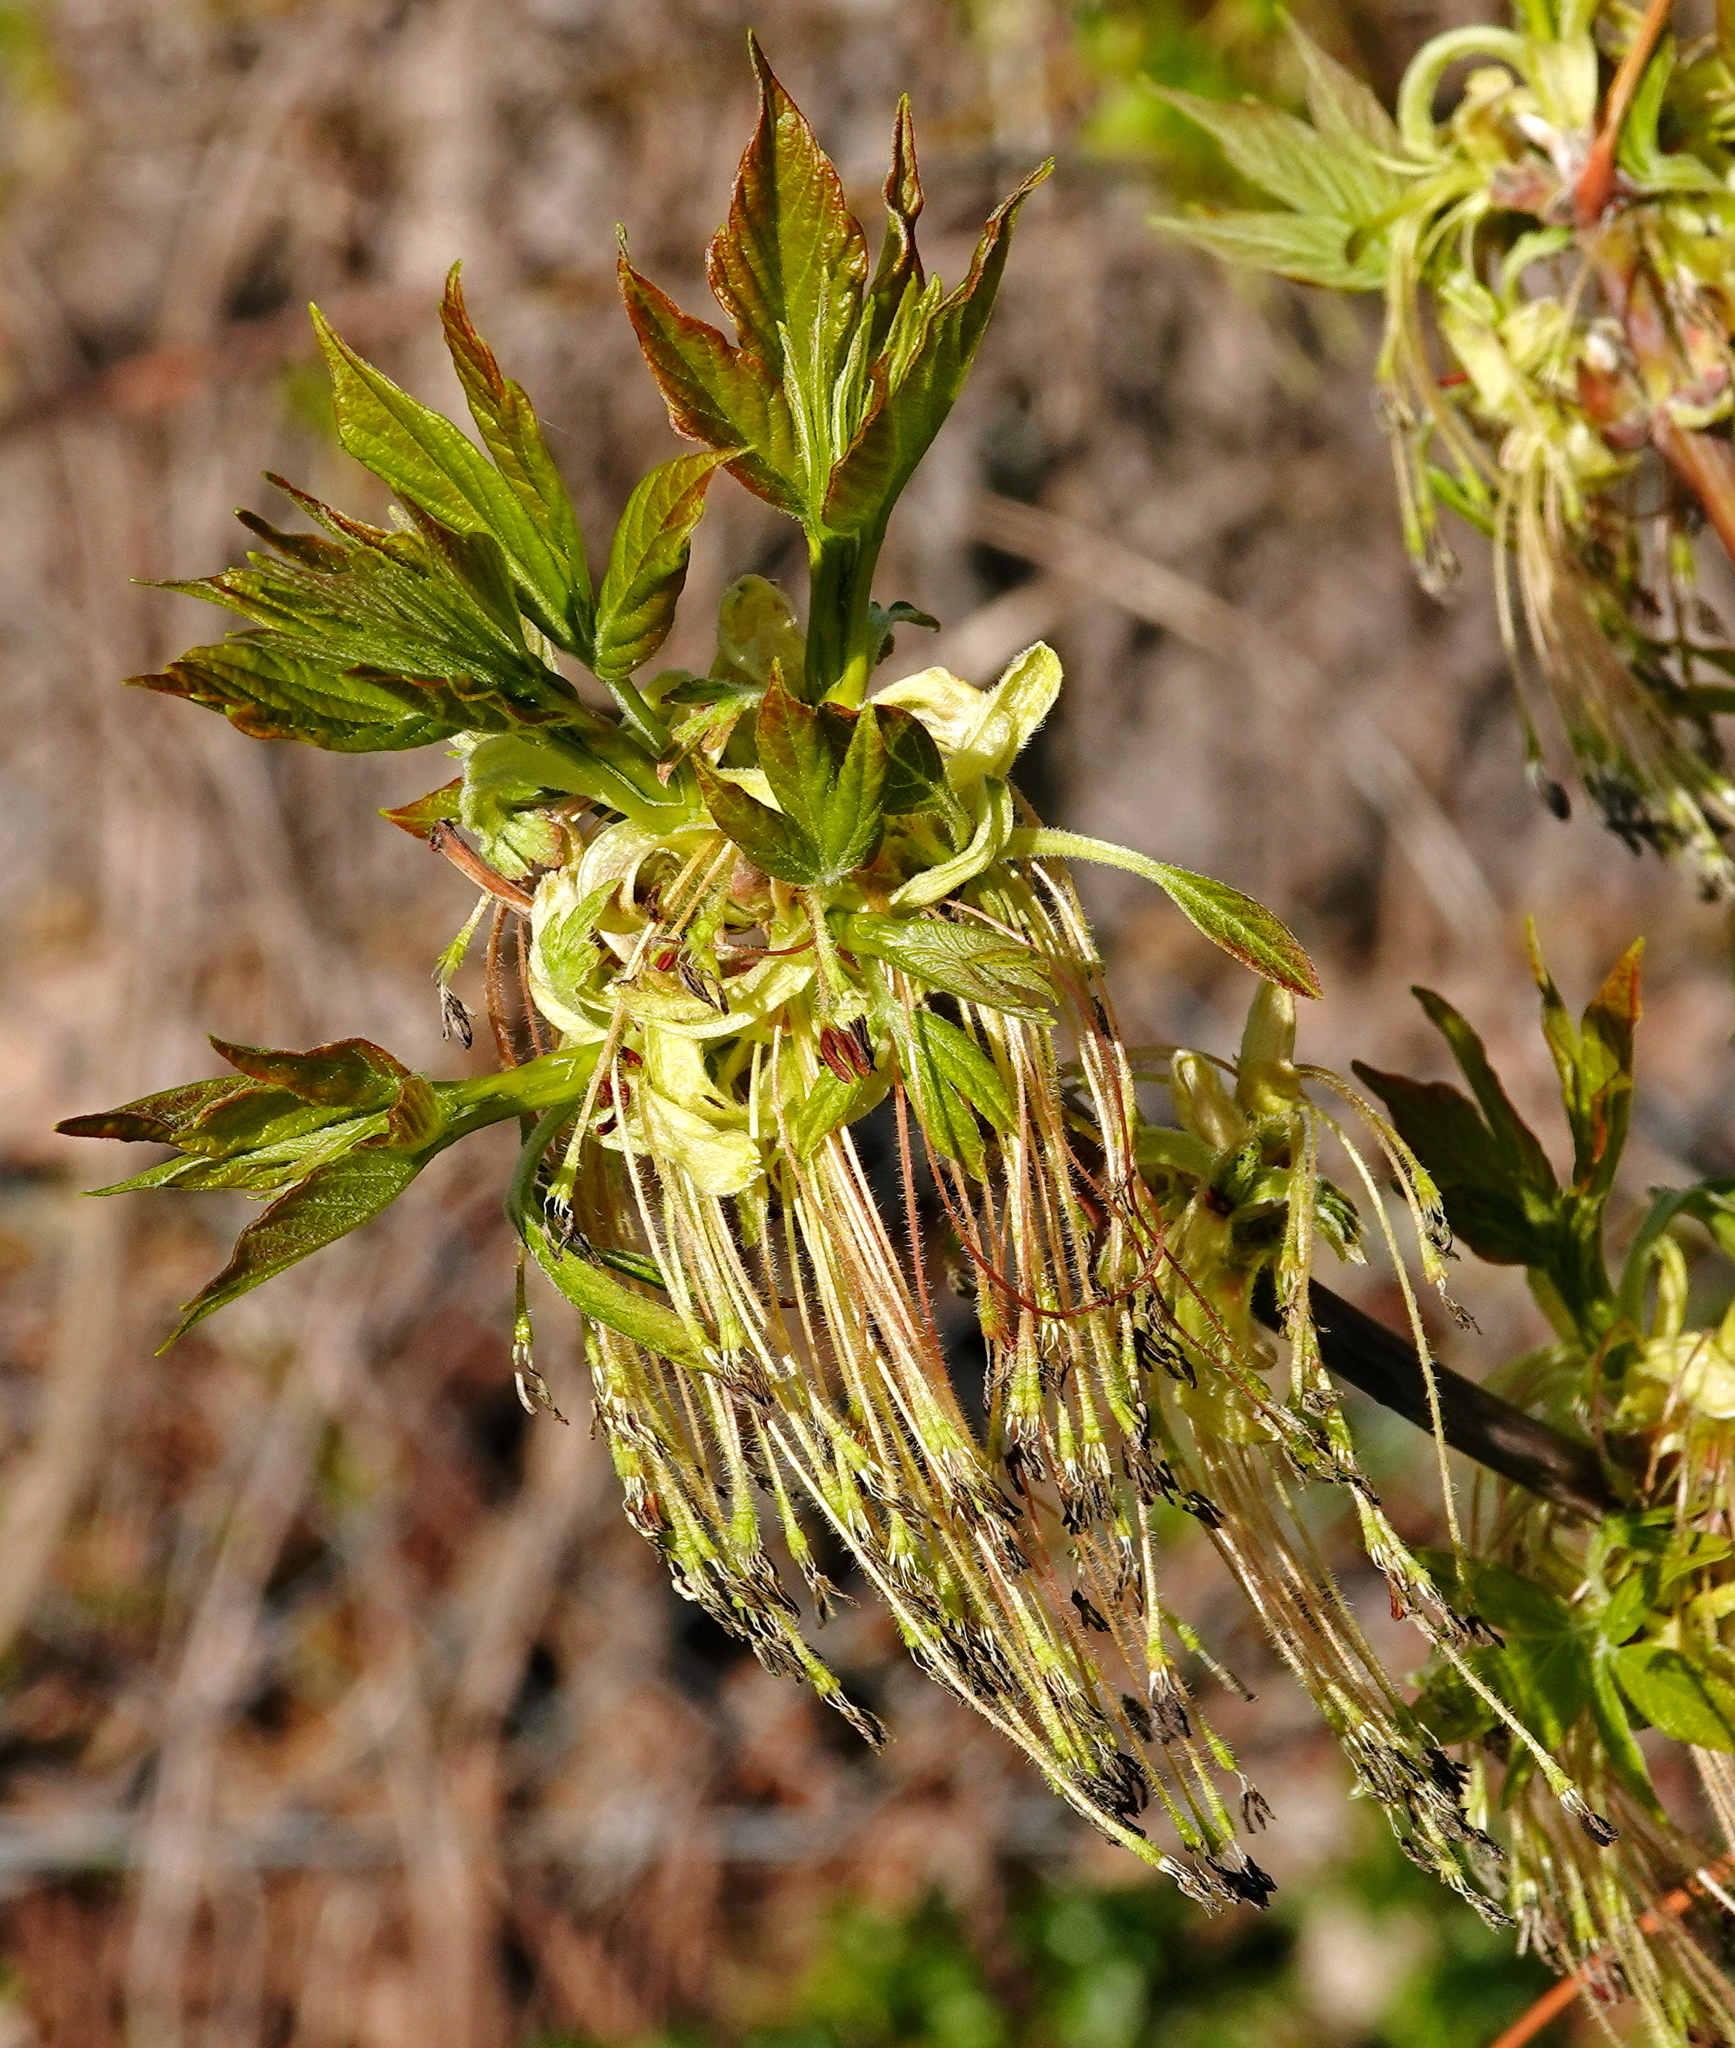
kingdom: Plantae
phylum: Tracheophyta
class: Magnoliopsida
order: Sapindales
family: Sapindaceae
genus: Acer
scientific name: Acer negundo
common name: Ashleaf maple
